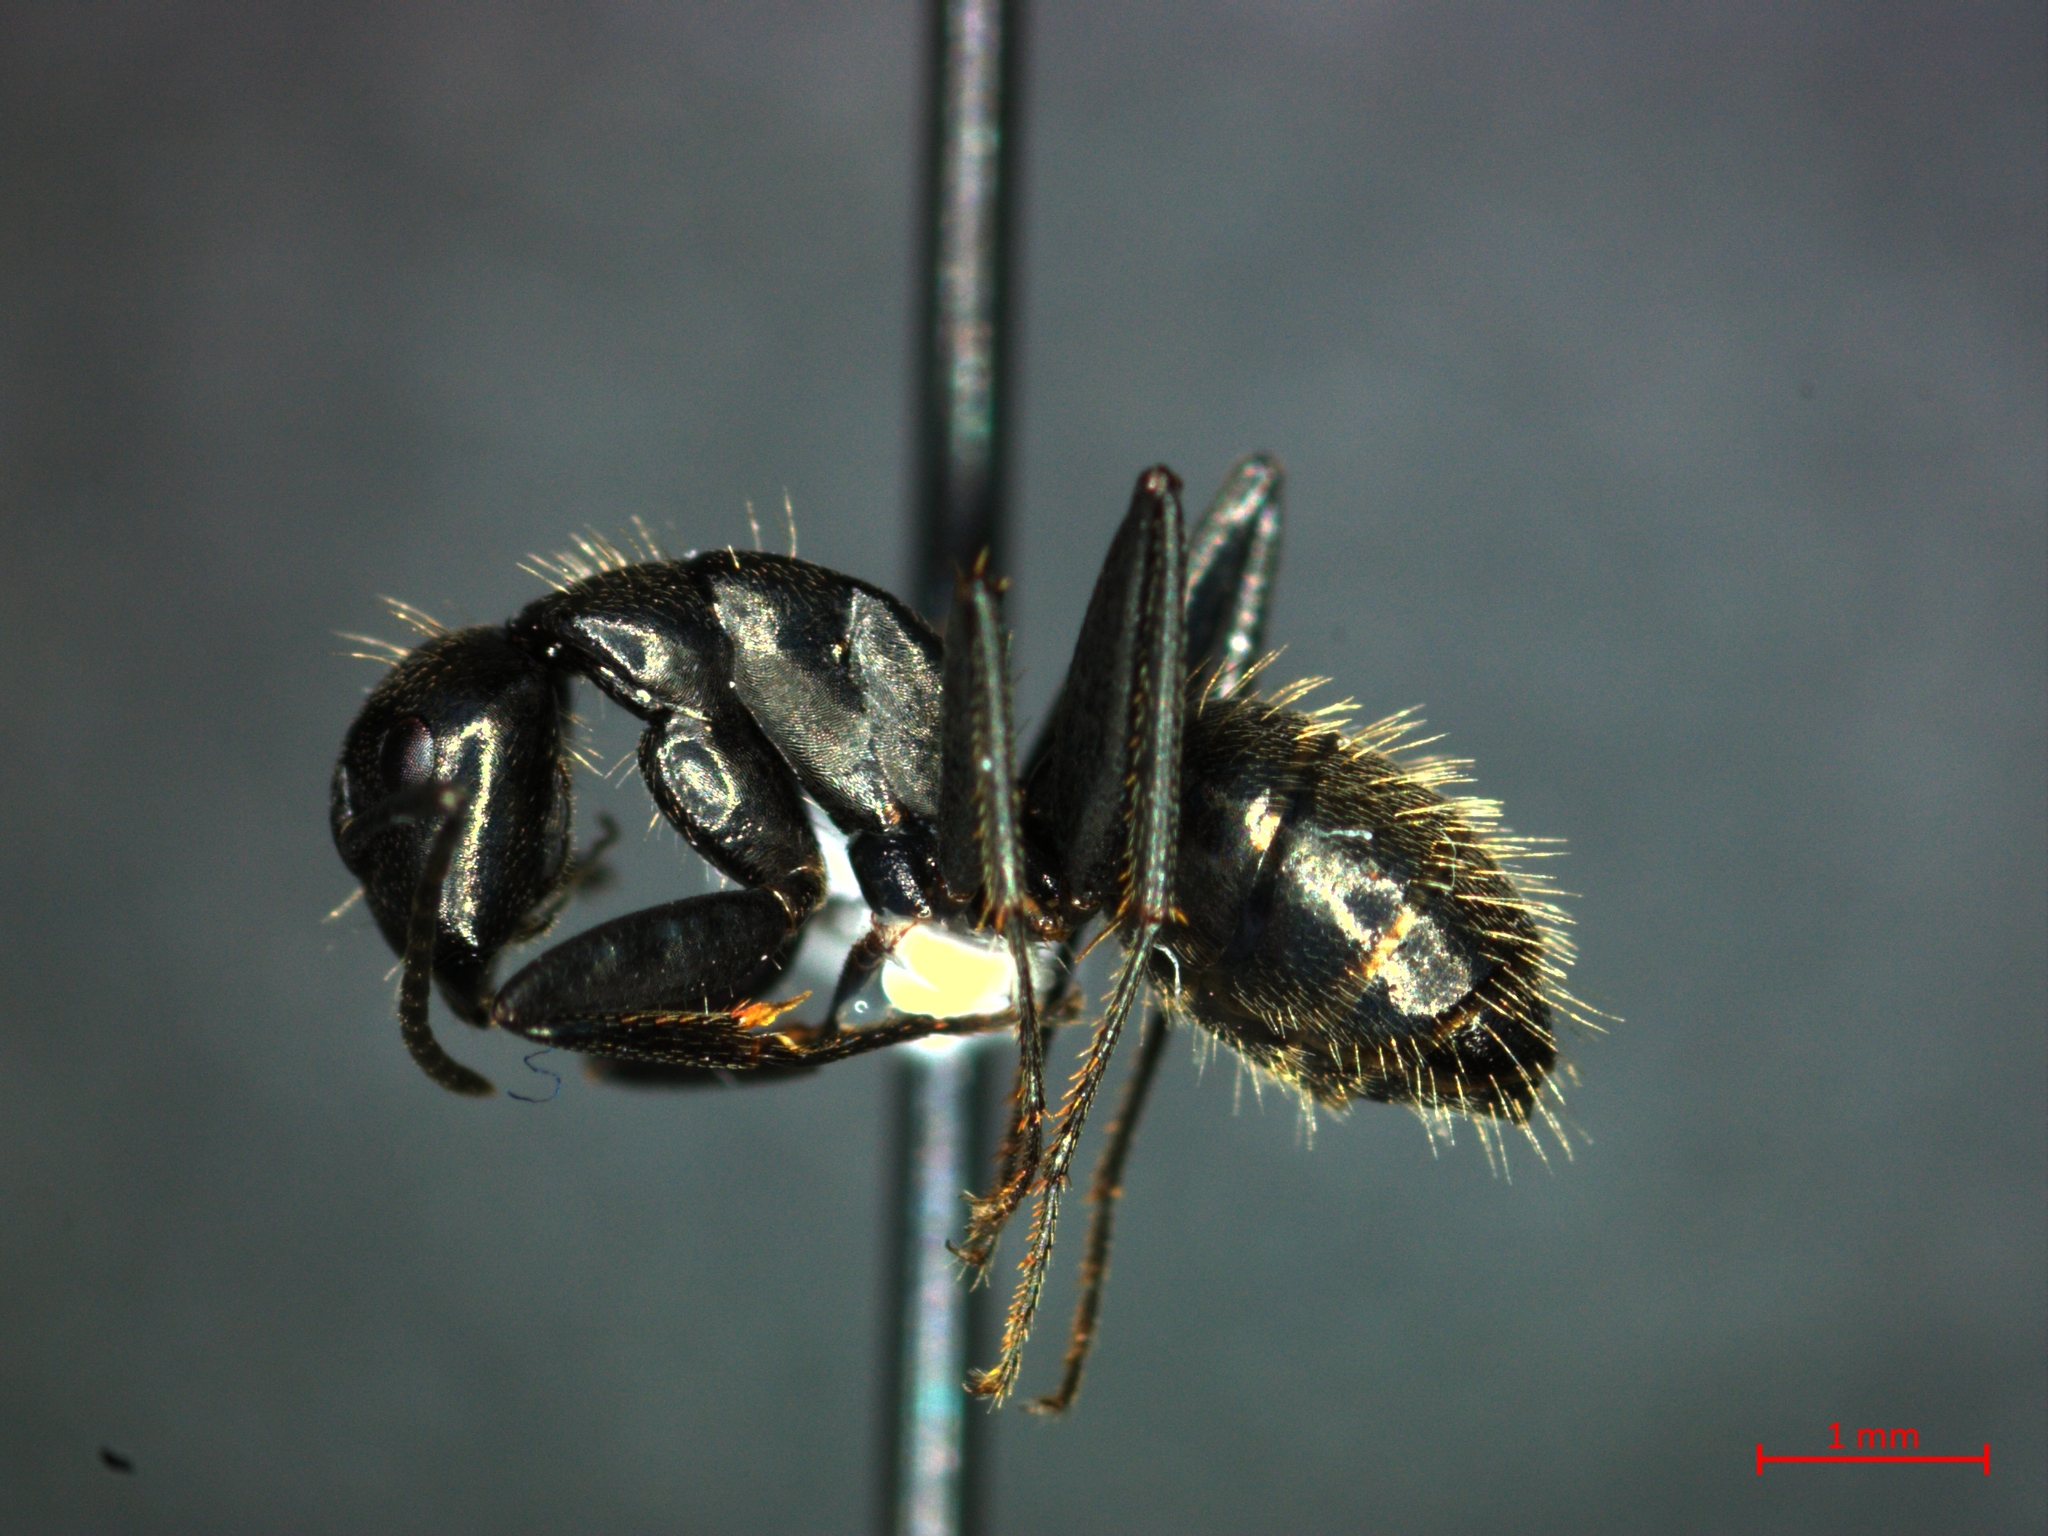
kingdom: Animalia
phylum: Arthropoda
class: Insecta
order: Hymenoptera
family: Formicidae
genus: Camponotus
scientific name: Camponotus vagus
